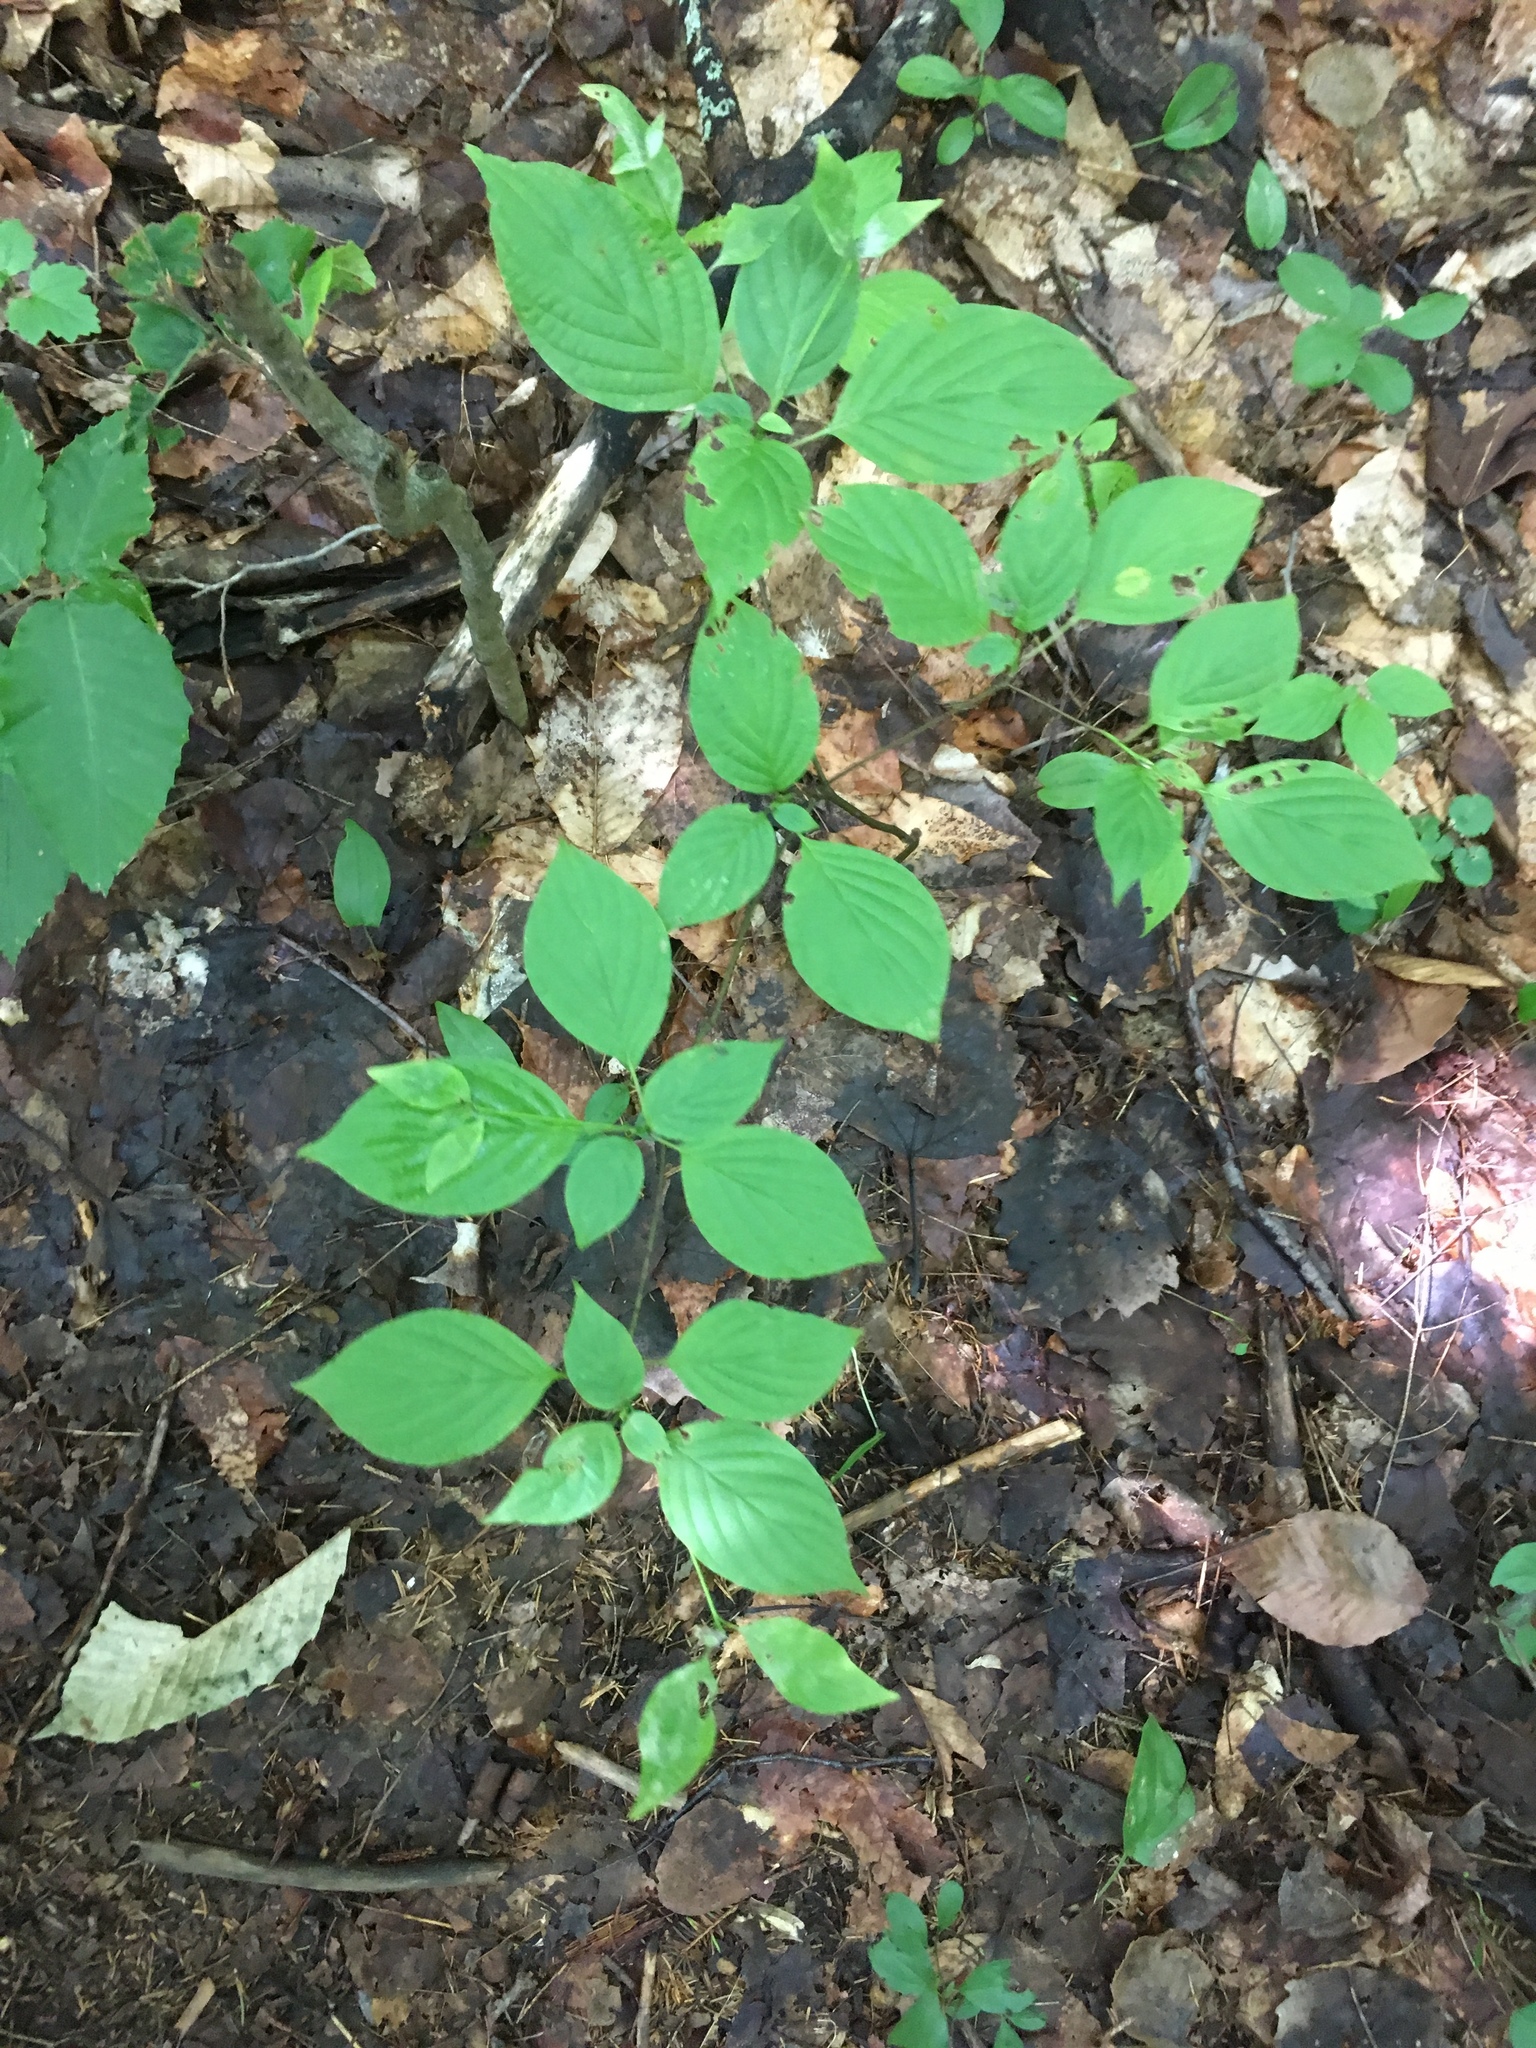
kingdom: Plantae
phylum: Tracheophyta
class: Magnoliopsida
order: Cornales
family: Cornaceae
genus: Cornus
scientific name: Cornus alternifolia
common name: Pagoda dogwood
